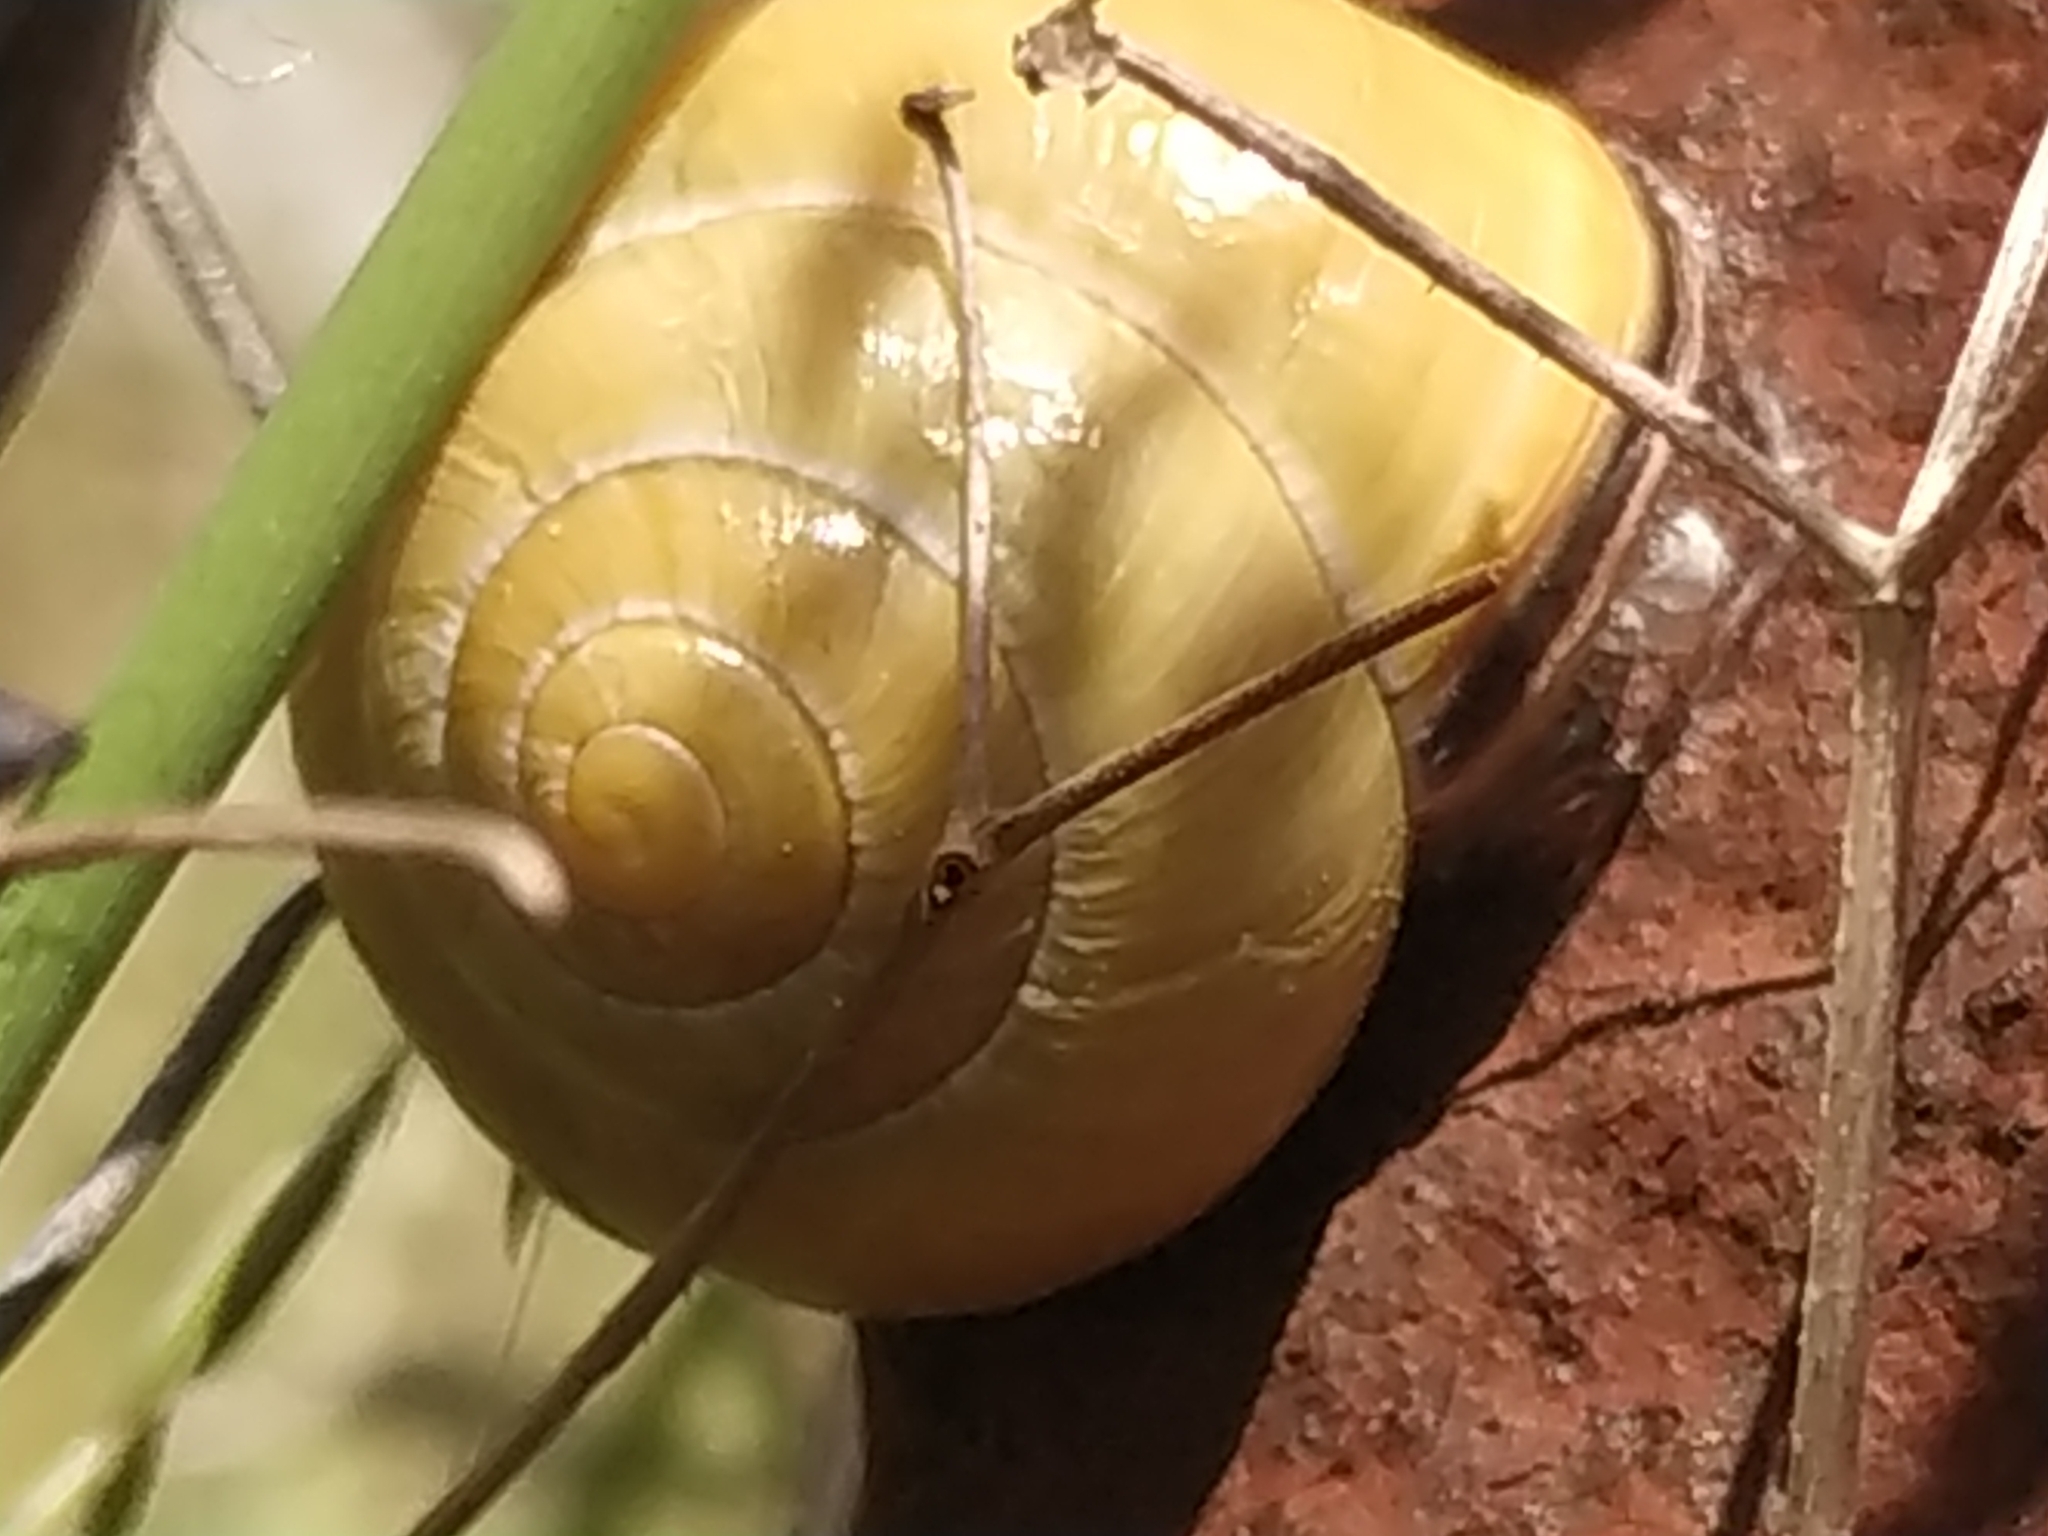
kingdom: Animalia
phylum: Mollusca
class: Gastropoda
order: Stylommatophora
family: Helicidae
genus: Cepaea
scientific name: Cepaea nemoralis
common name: Grovesnail
